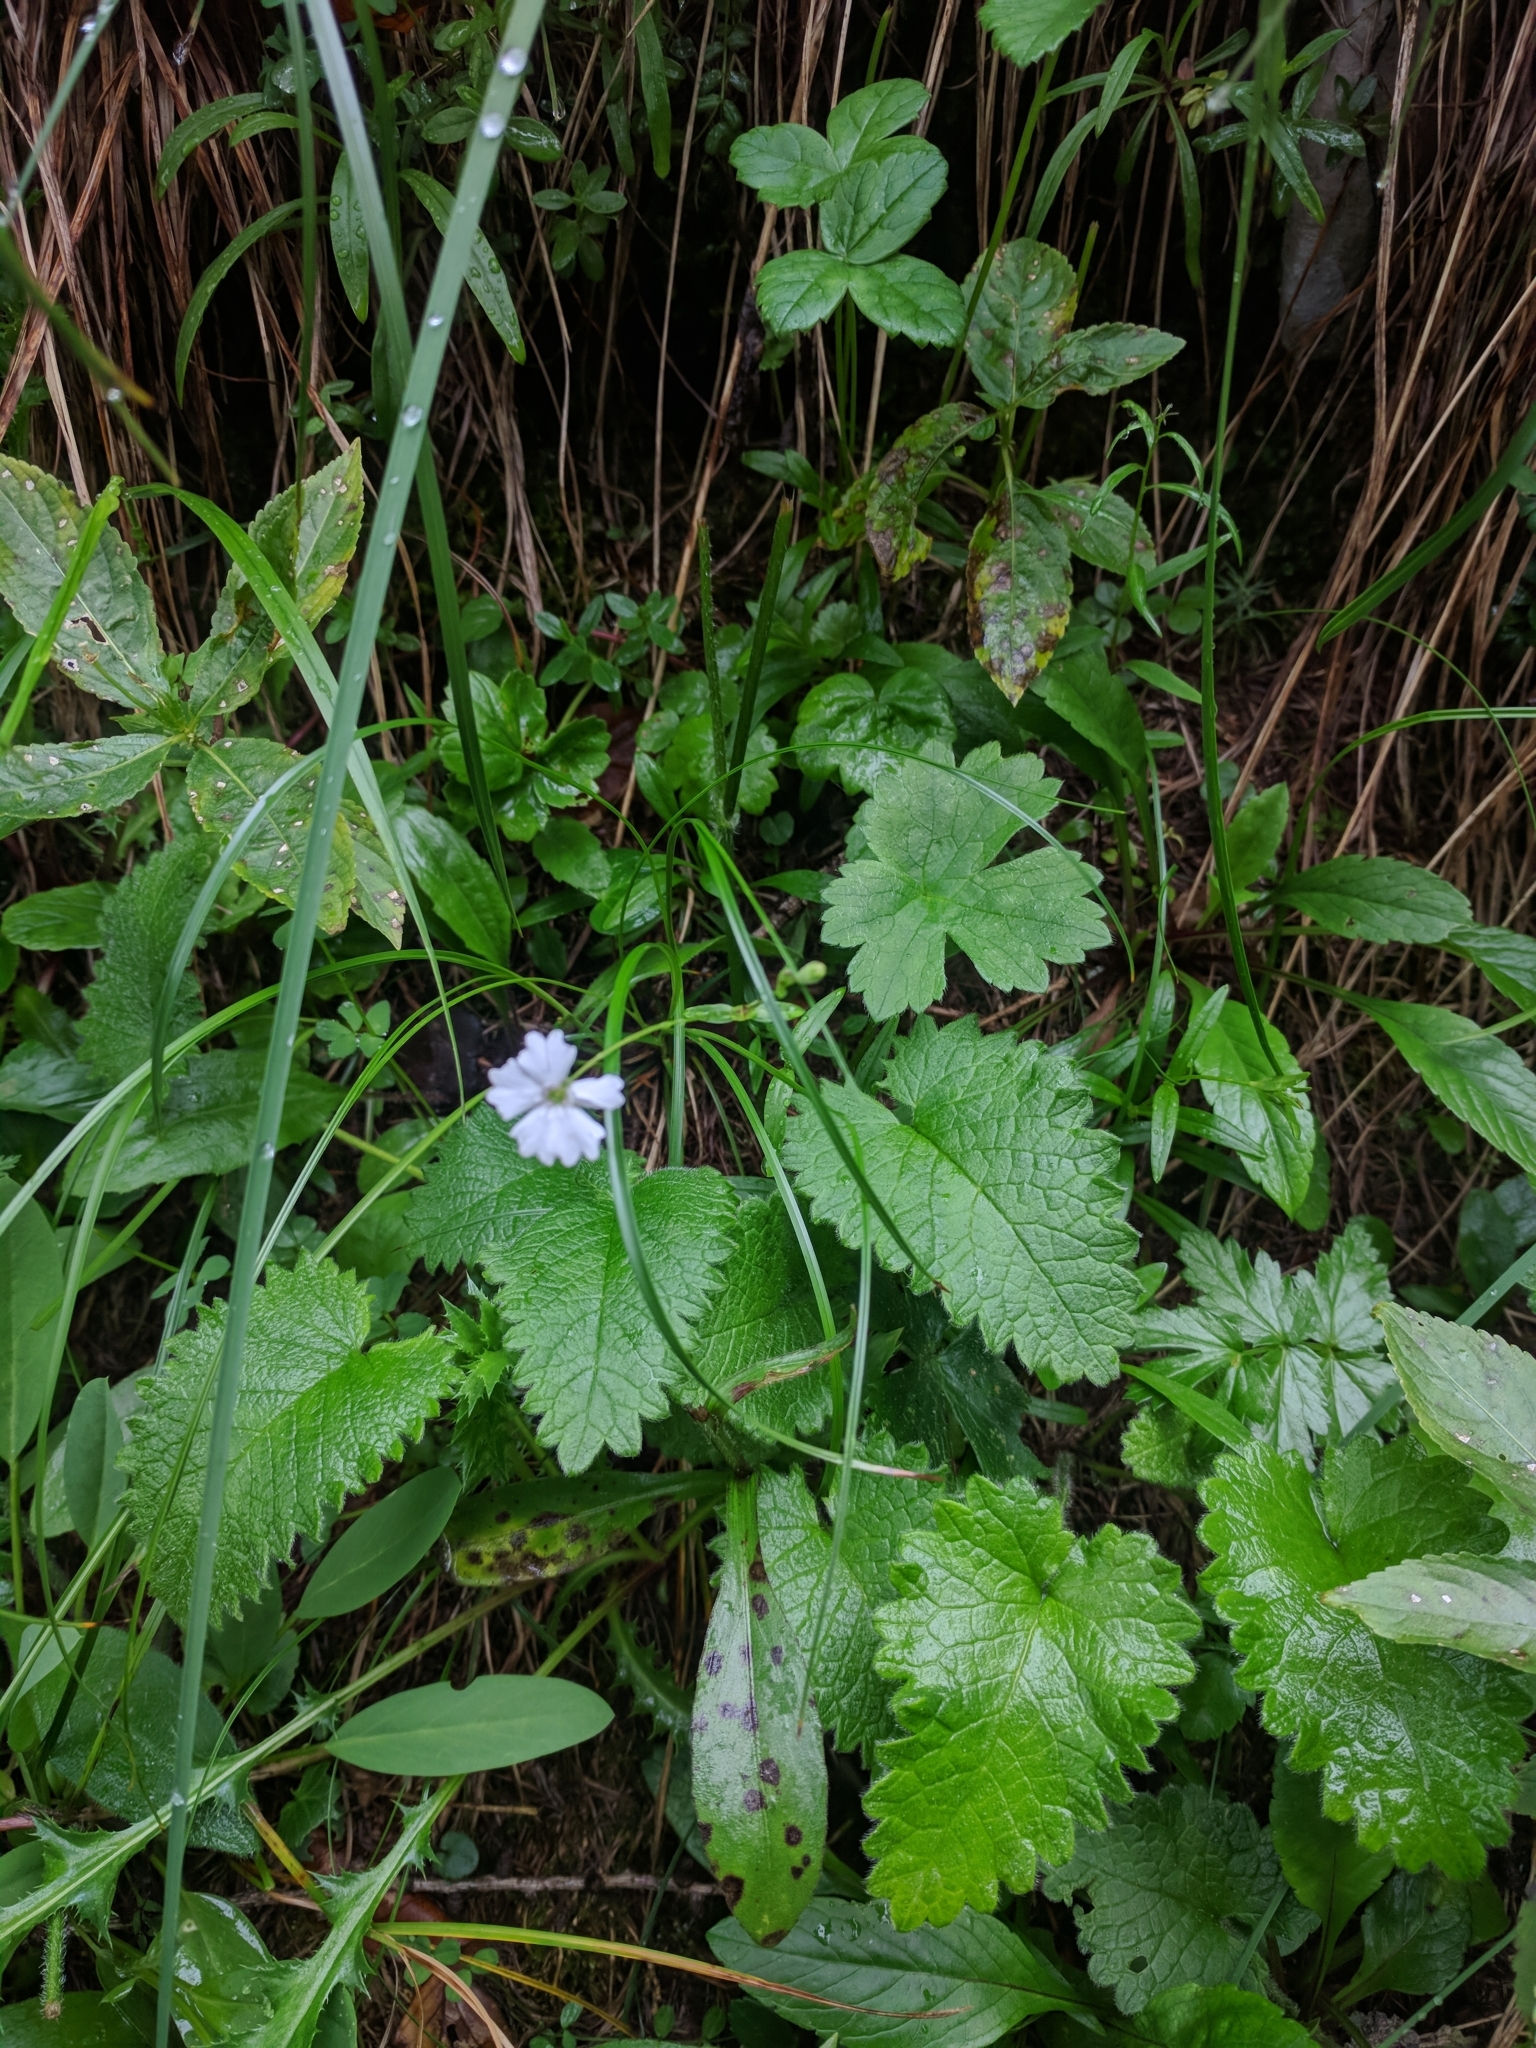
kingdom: Plantae
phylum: Tracheophyta
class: Magnoliopsida
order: Caryophyllales
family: Caryophyllaceae
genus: Heliosperma
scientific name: Heliosperma alpestre
